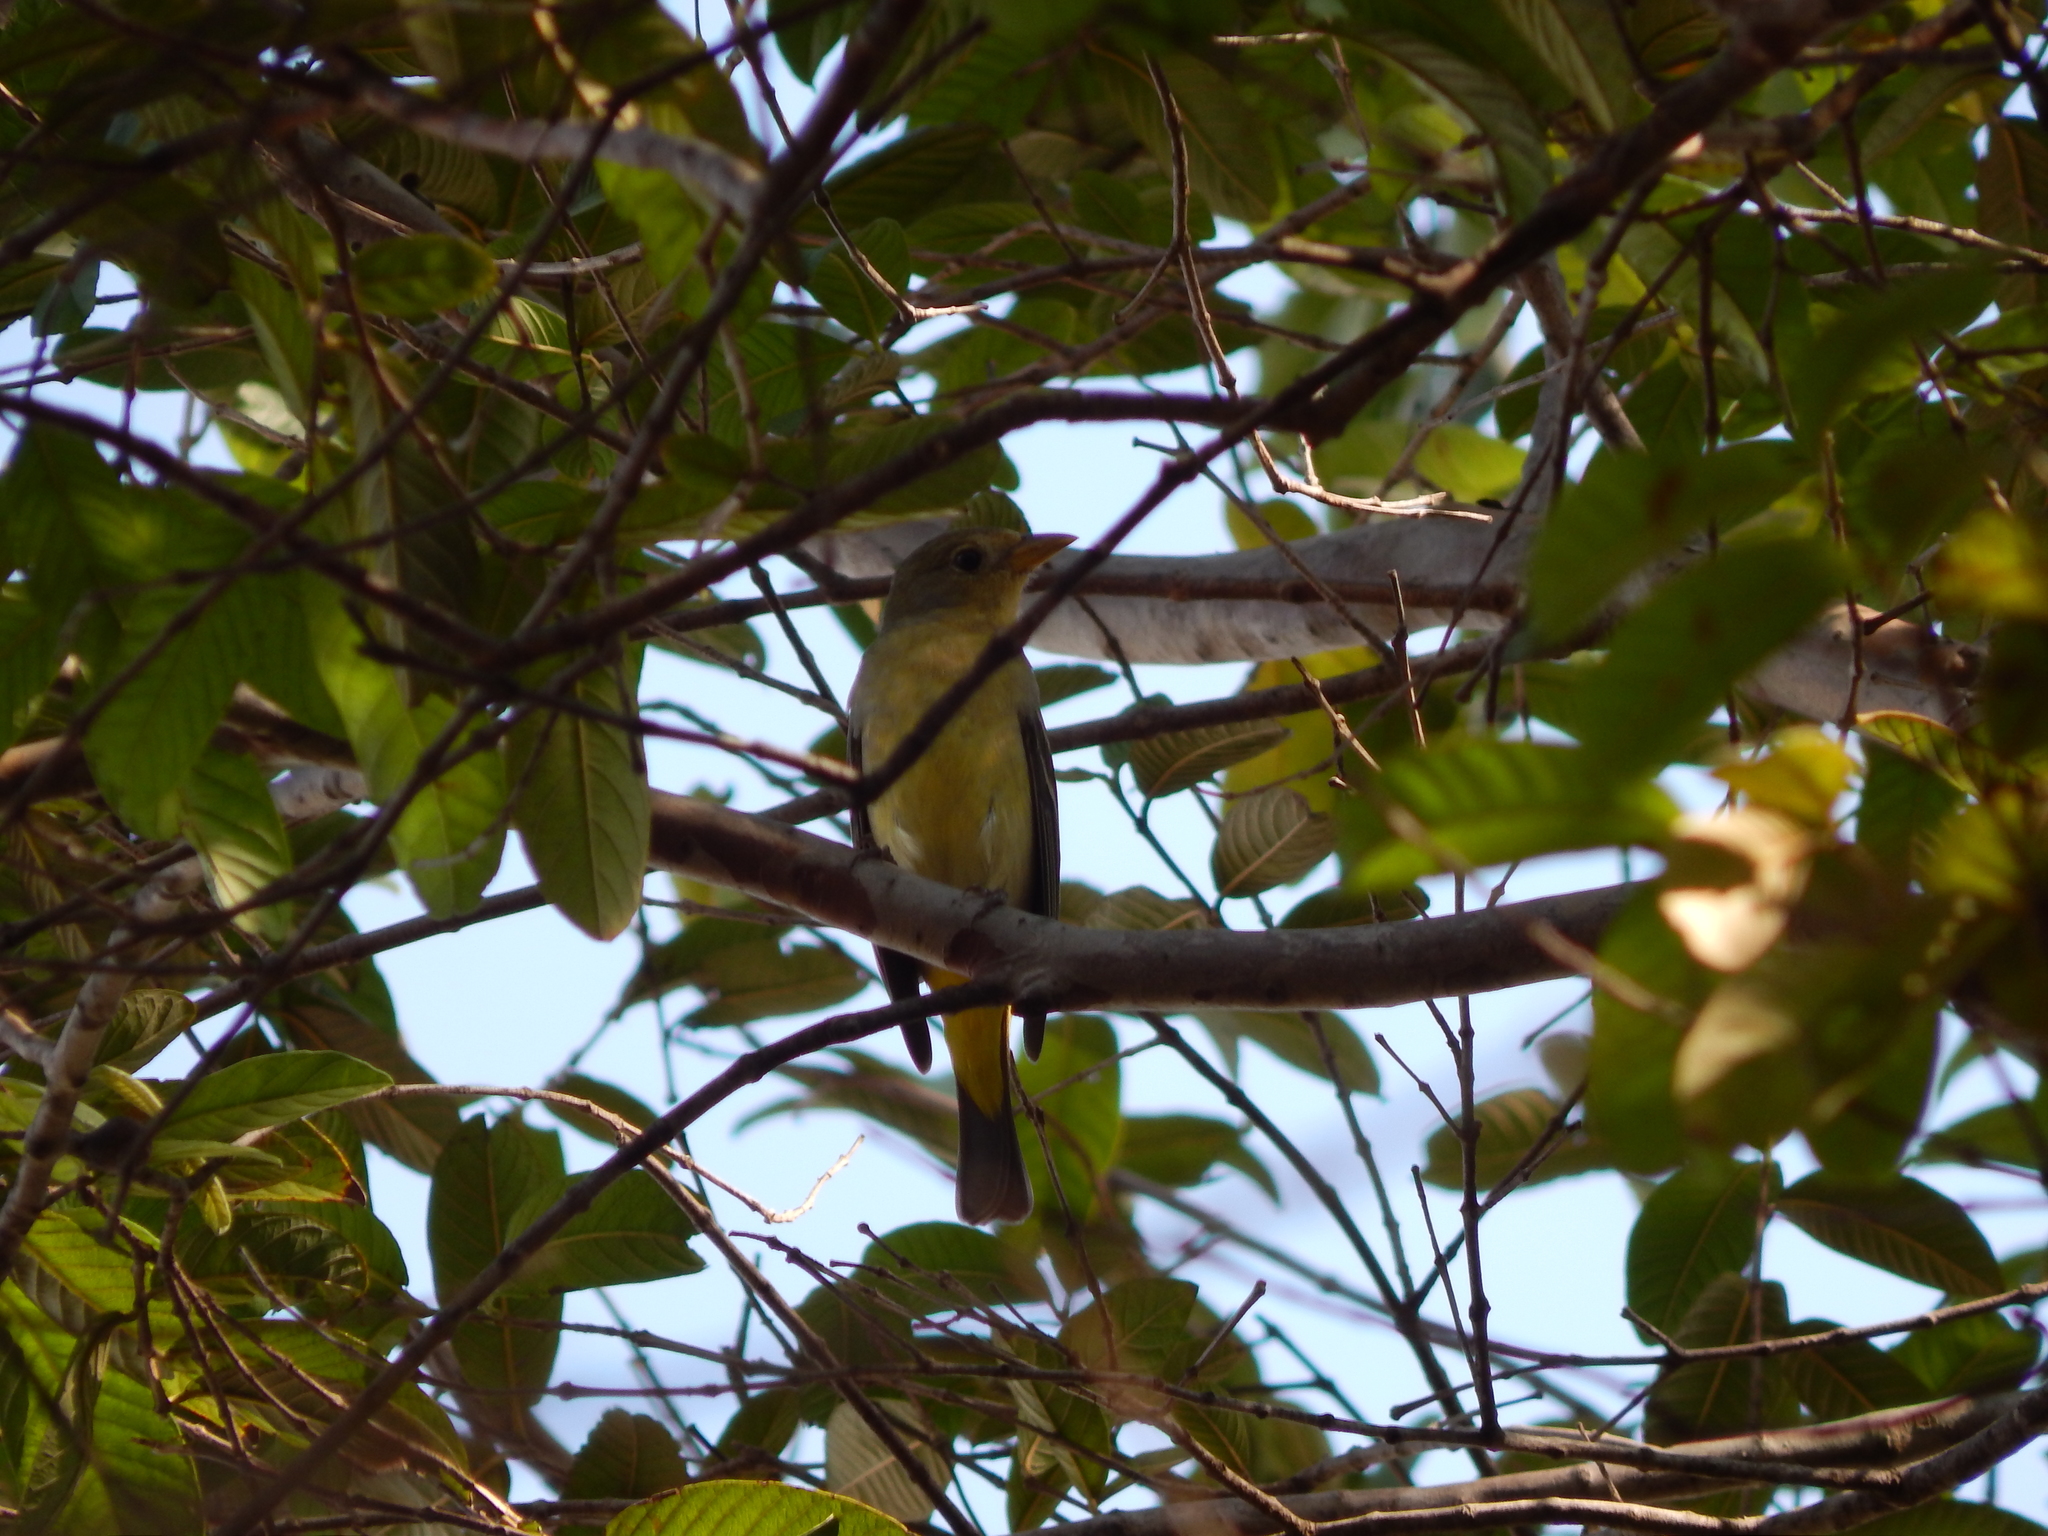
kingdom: Animalia
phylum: Chordata
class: Aves
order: Passeriformes
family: Cardinalidae
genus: Piranga
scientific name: Piranga ludoviciana
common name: Western tanager
